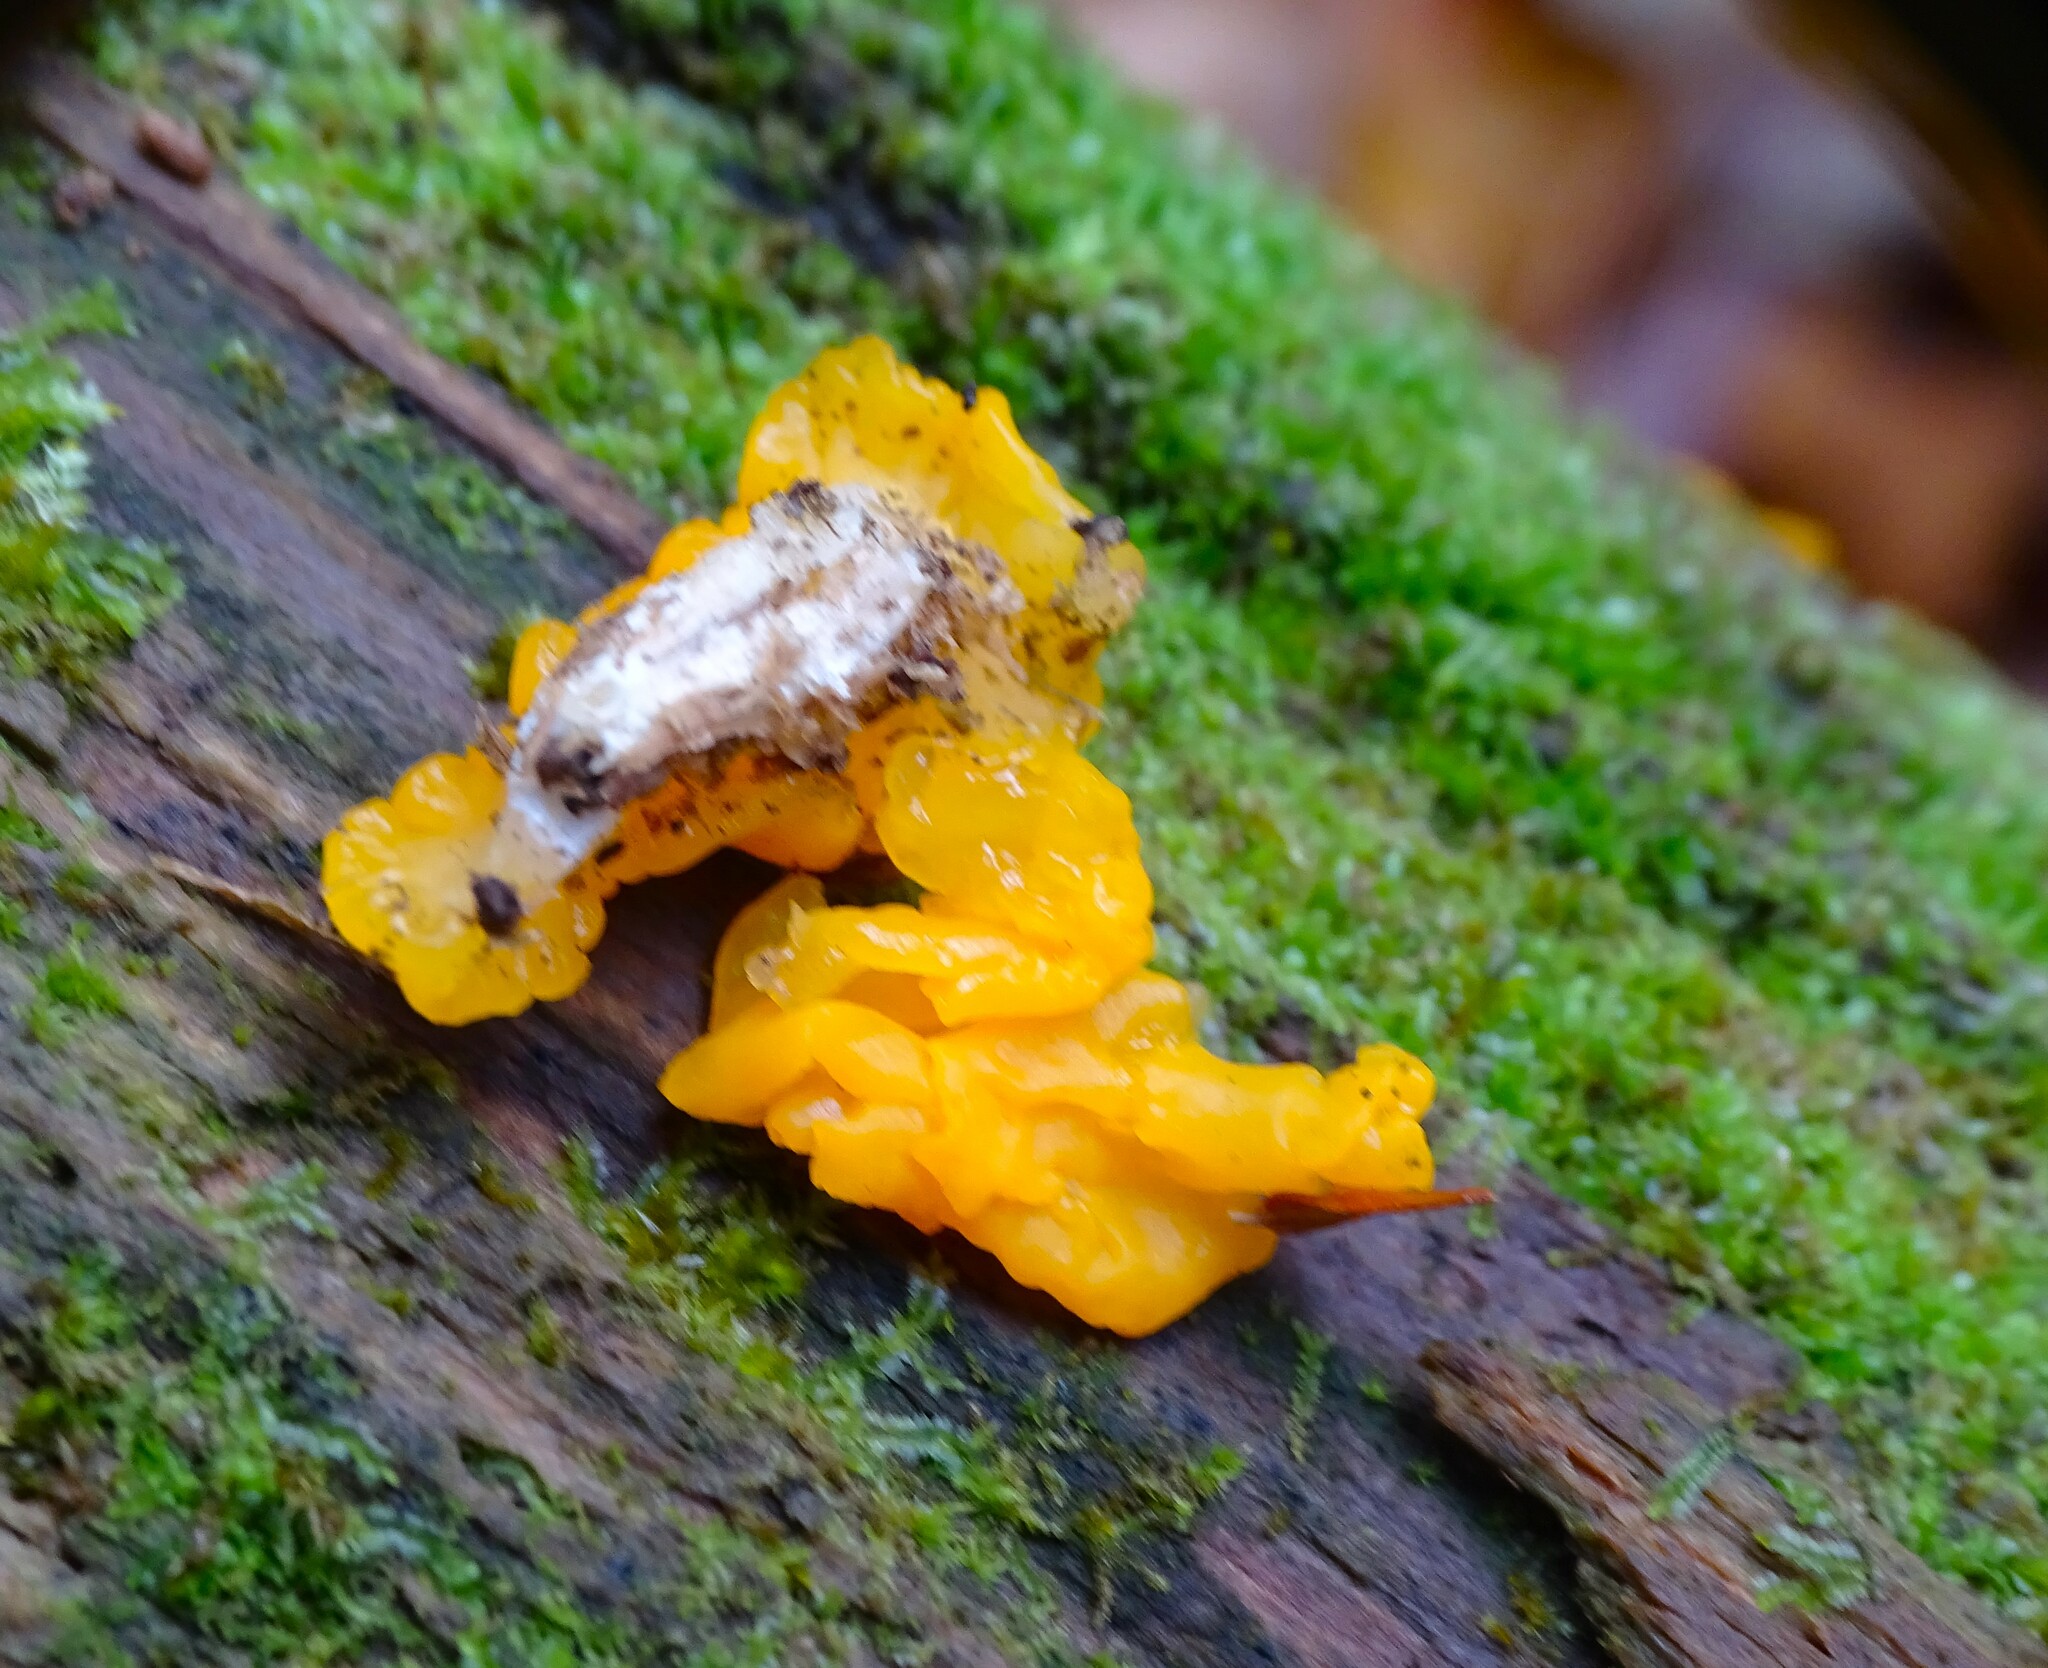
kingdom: Fungi
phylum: Basidiomycota
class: Dacrymycetes
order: Dacrymycetales
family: Dacrymycetaceae
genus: Dacrymyces
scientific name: Dacrymyces chrysospermus
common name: Orange jelly spot
